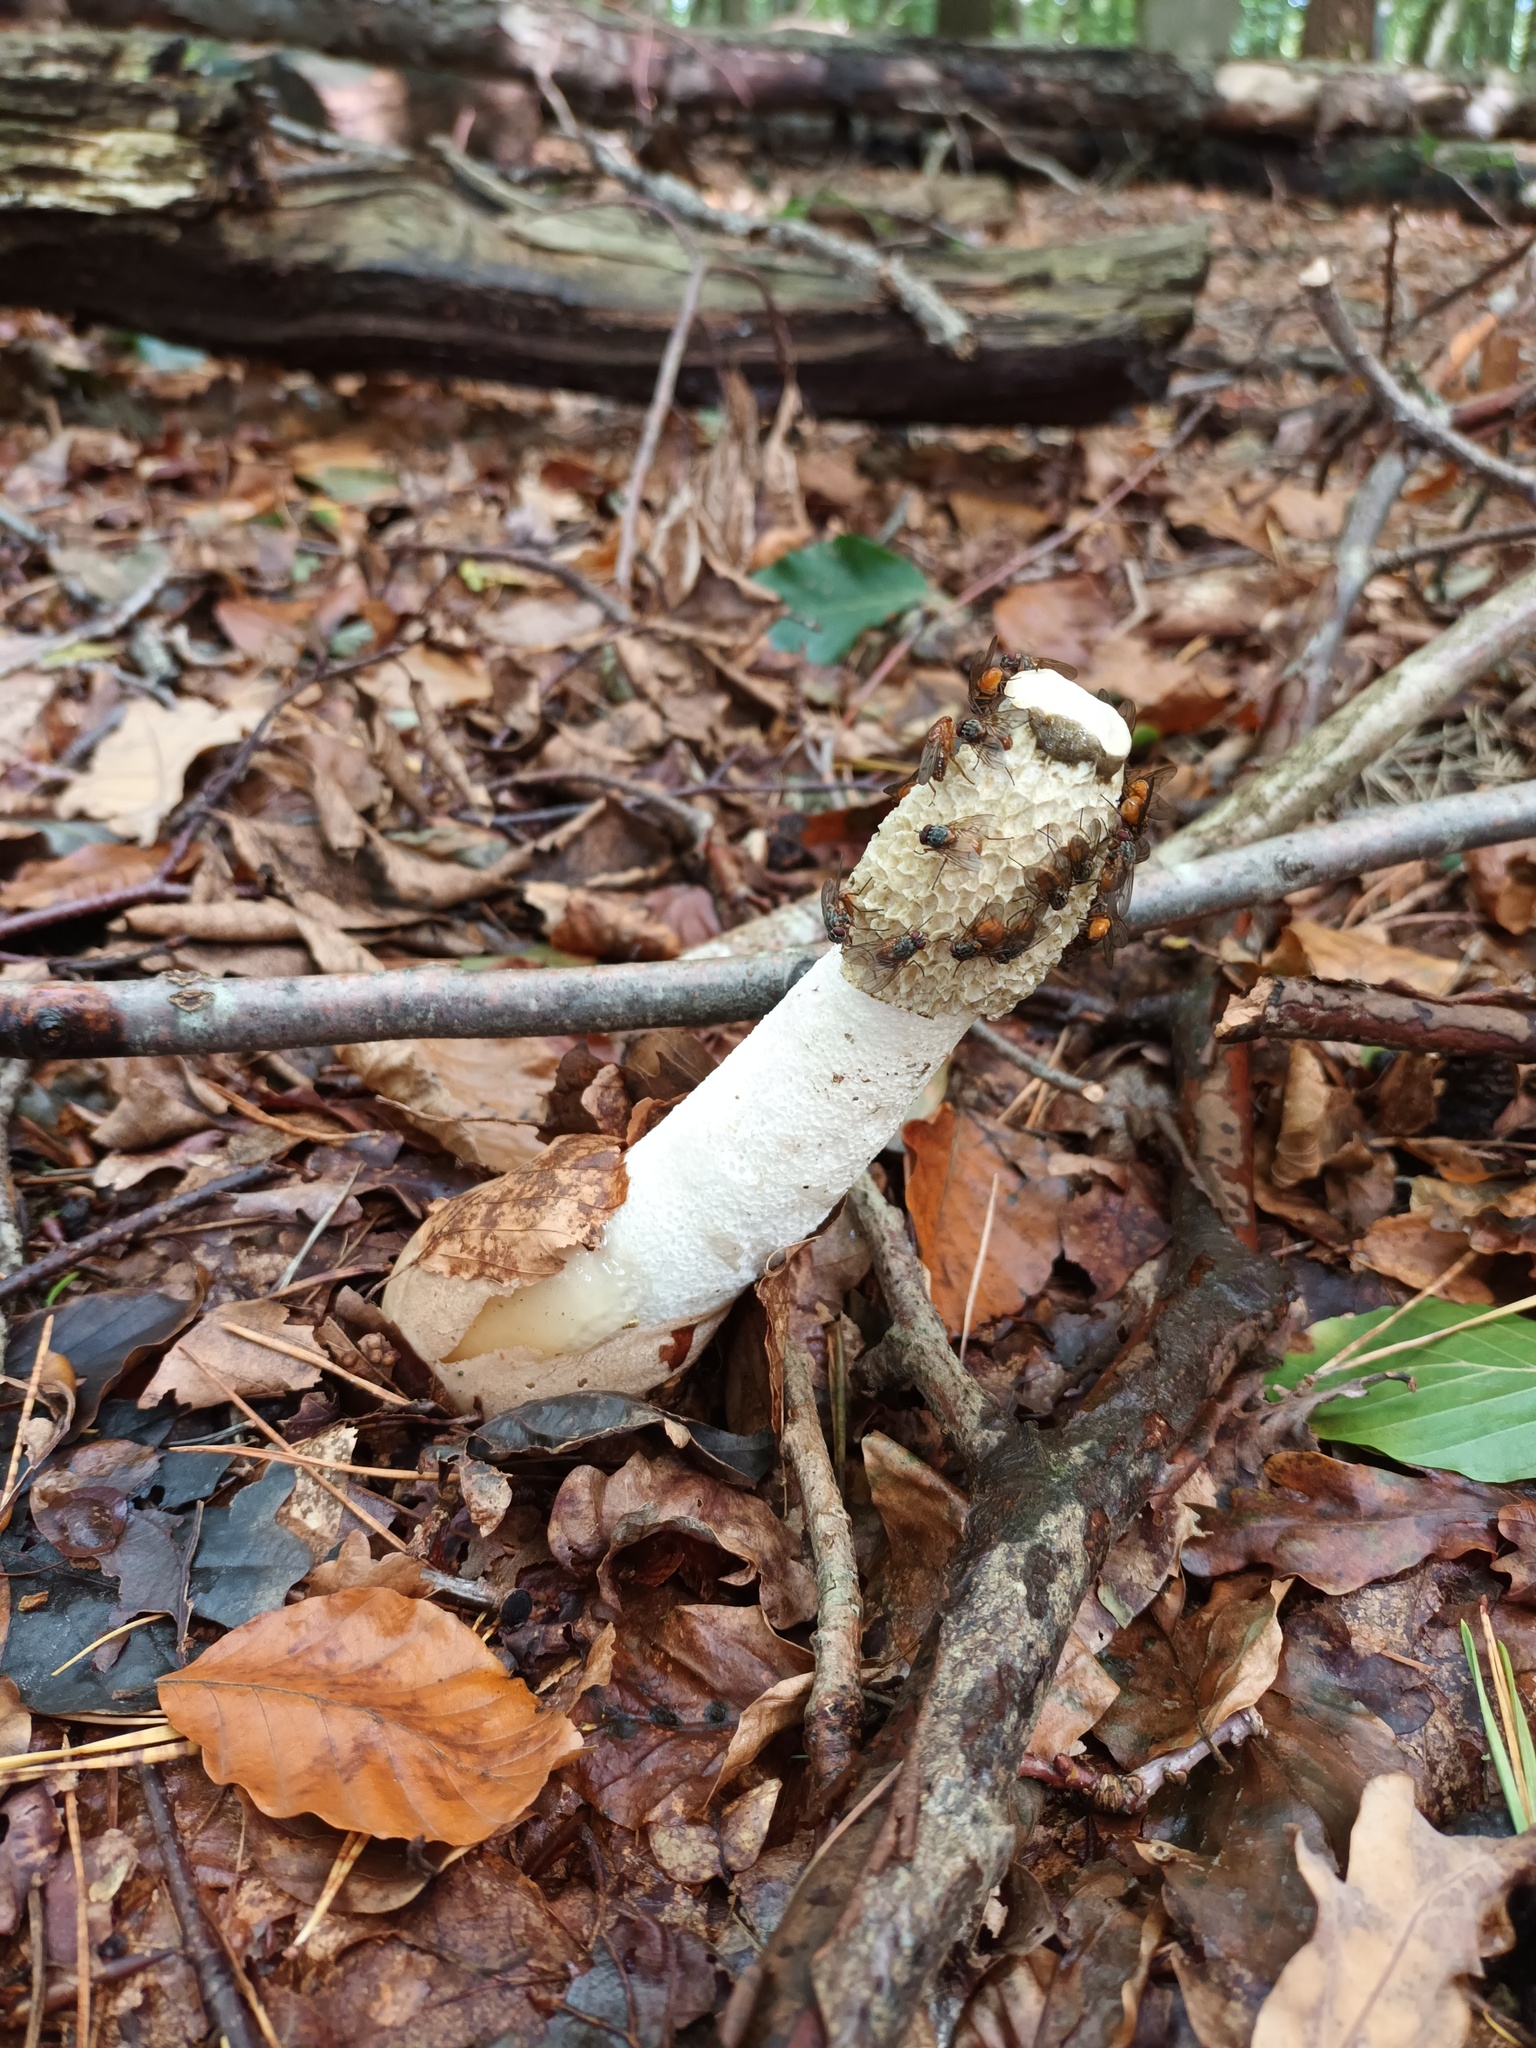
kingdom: Fungi
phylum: Basidiomycota
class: Agaricomycetes
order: Phallales
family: Phallaceae
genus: Phallus
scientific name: Phallus impudicus
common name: Common stinkhorn
